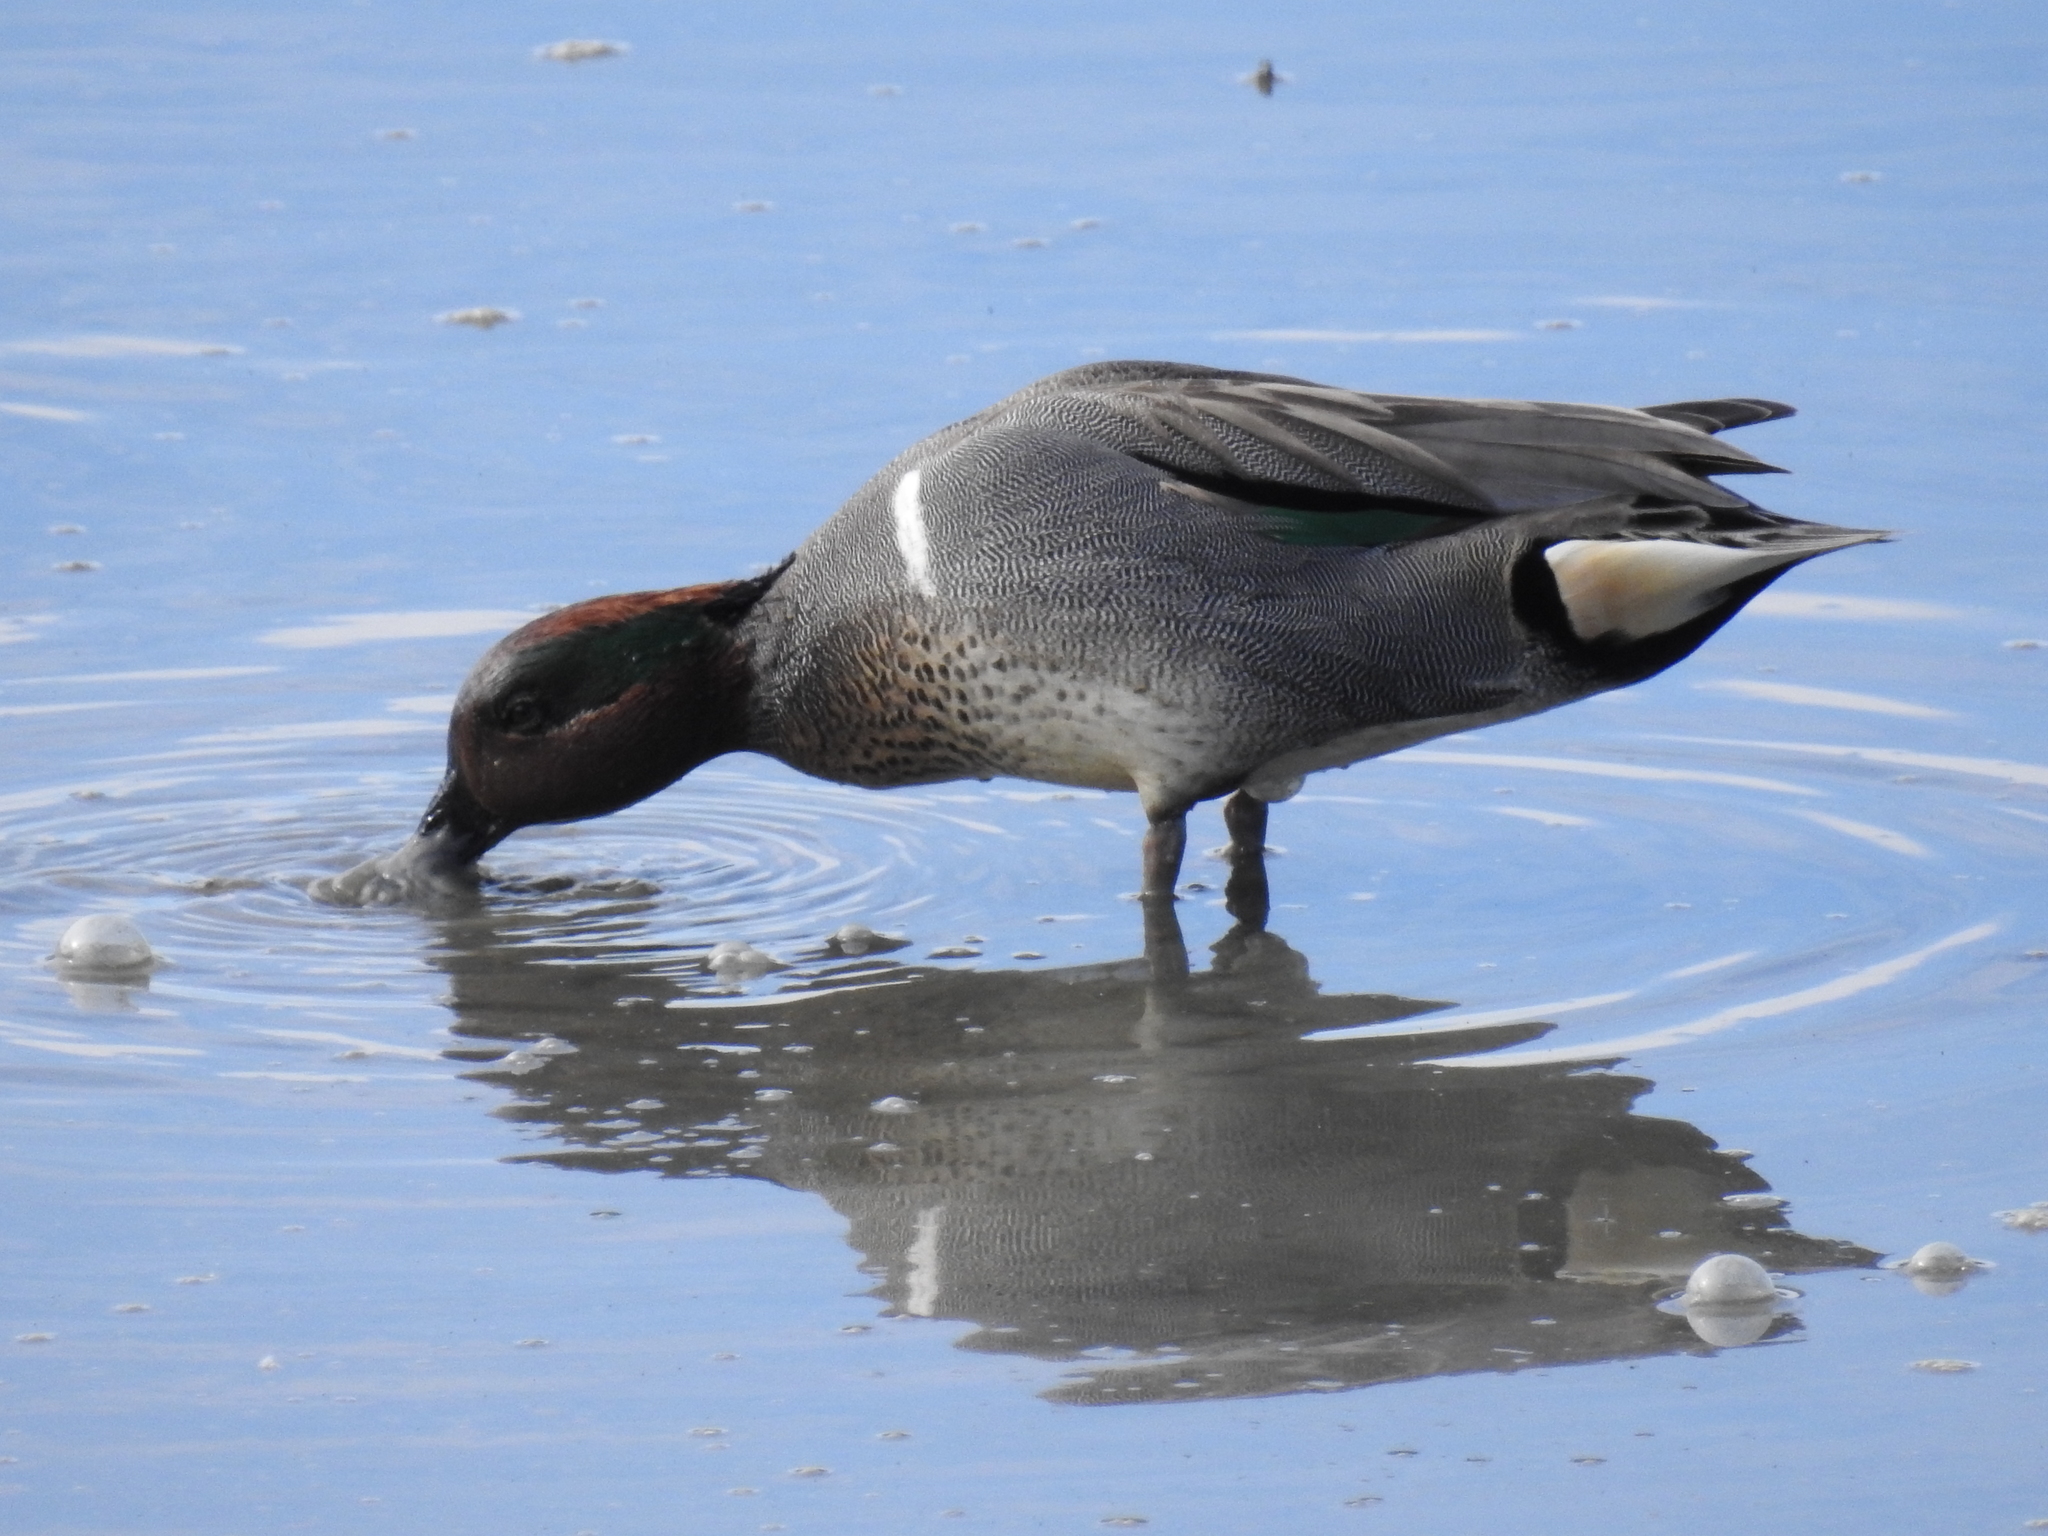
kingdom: Animalia
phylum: Chordata
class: Aves
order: Anseriformes
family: Anatidae
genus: Anas
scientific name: Anas crecca
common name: Eurasian teal
